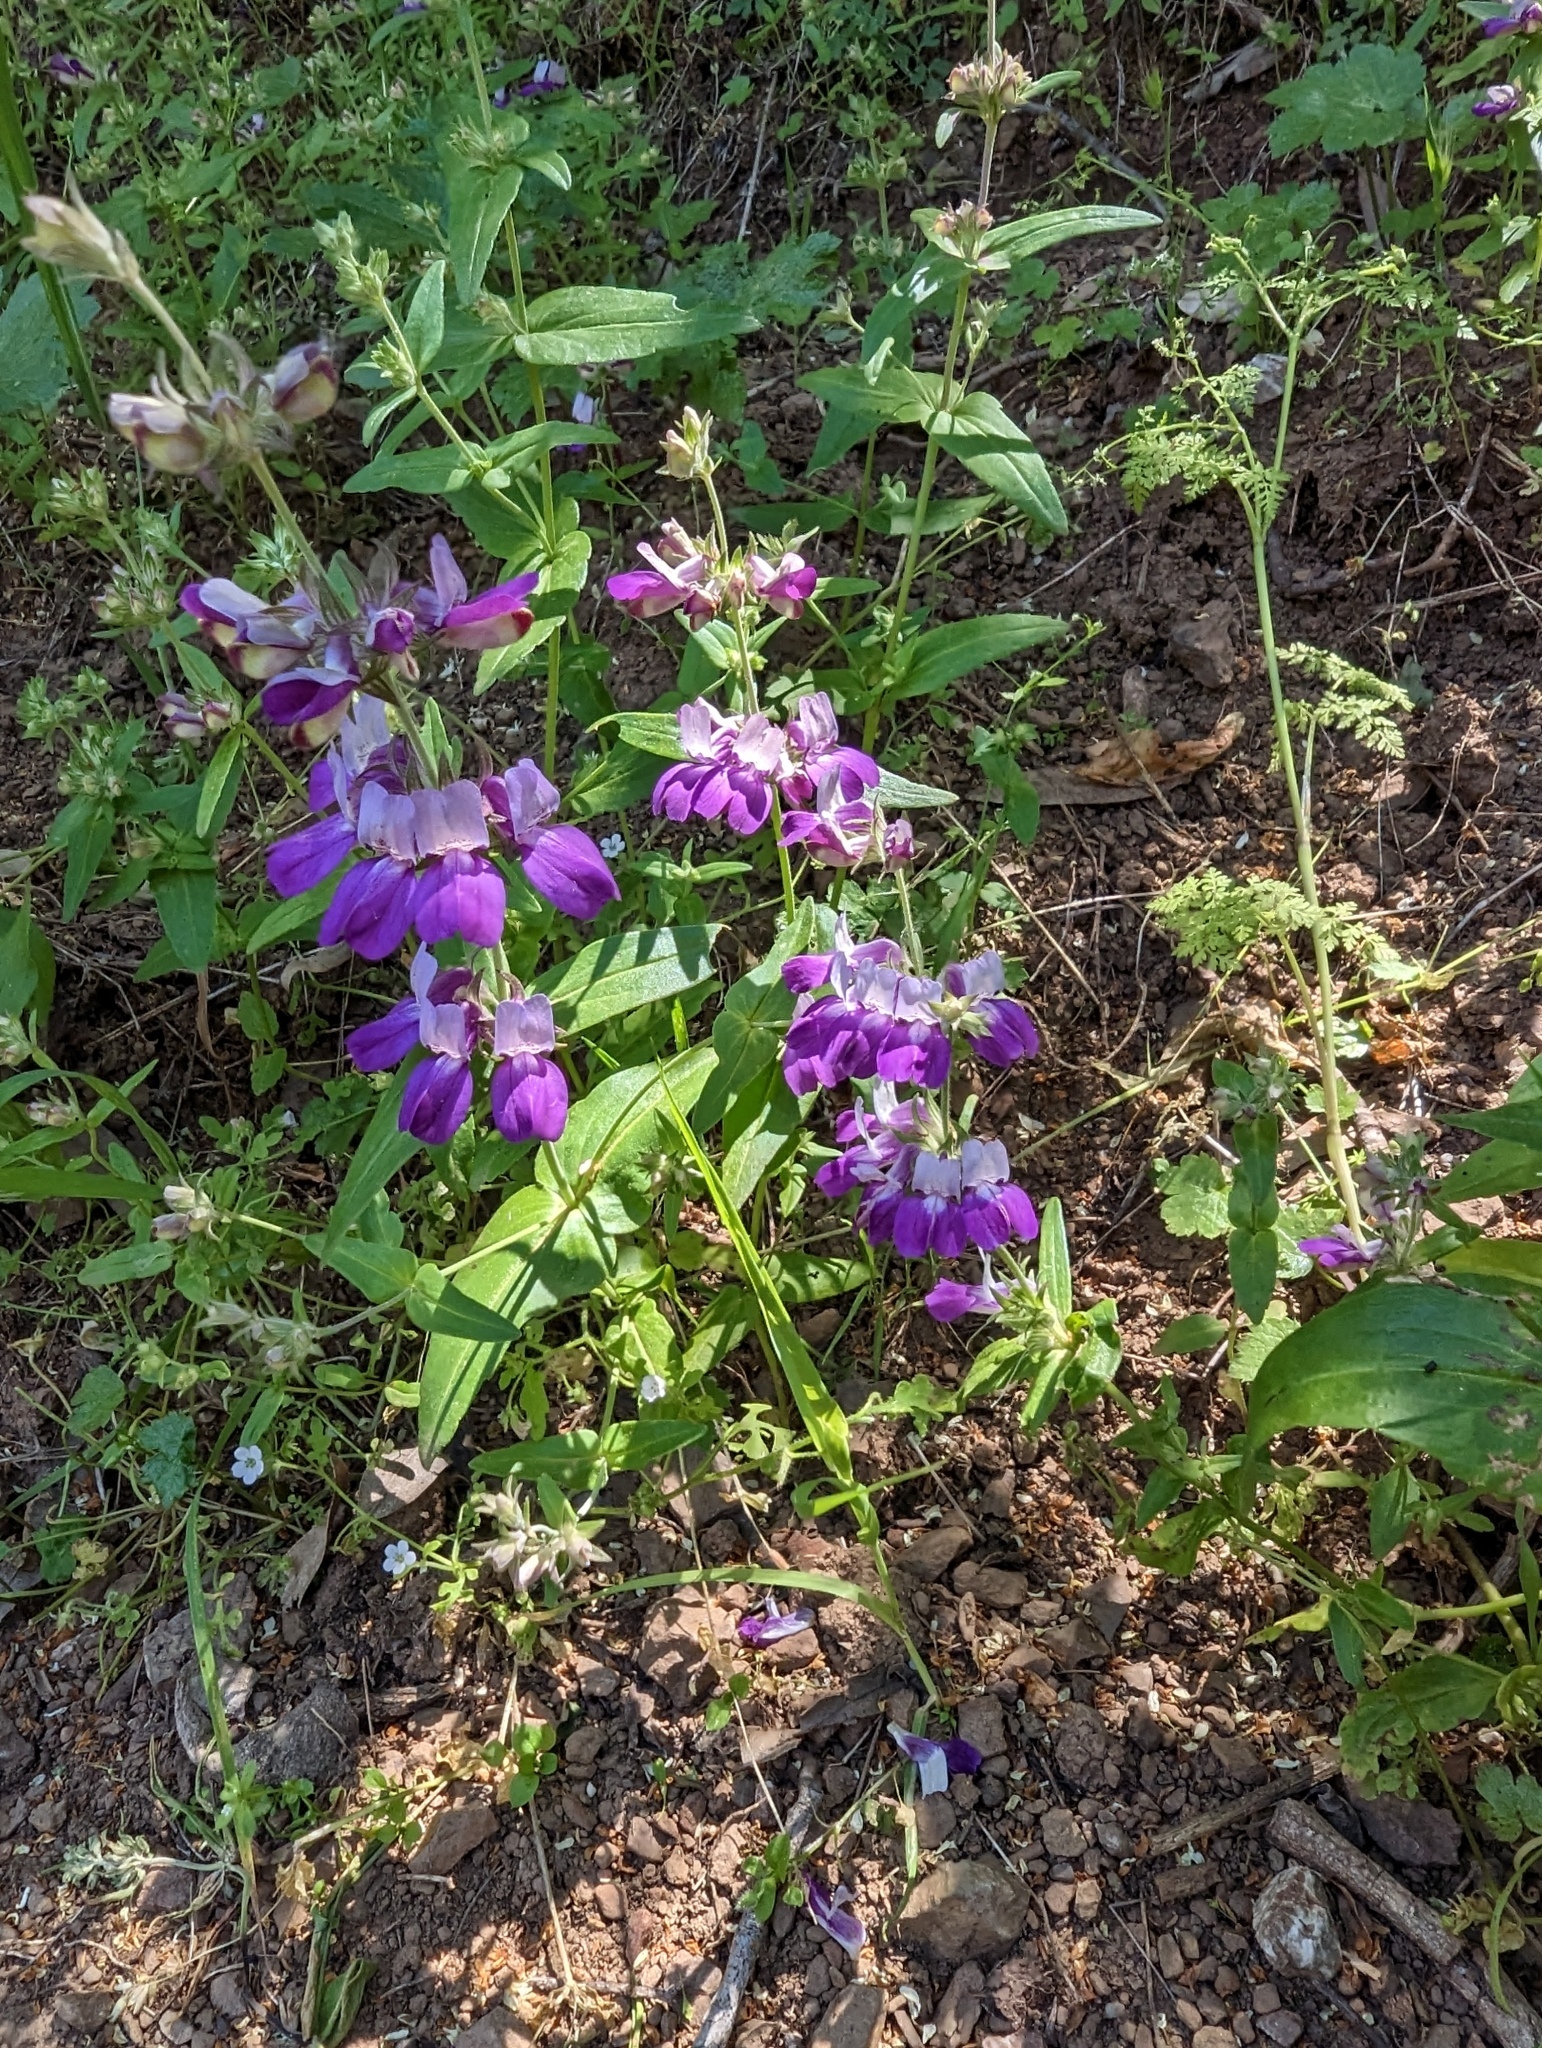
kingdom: Plantae
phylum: Tracheophyta
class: Magnoliopsida
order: Lamiales
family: Plantaginaceae
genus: Collinsia
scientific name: Collinsia heterophylla
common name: Chinese-houses
